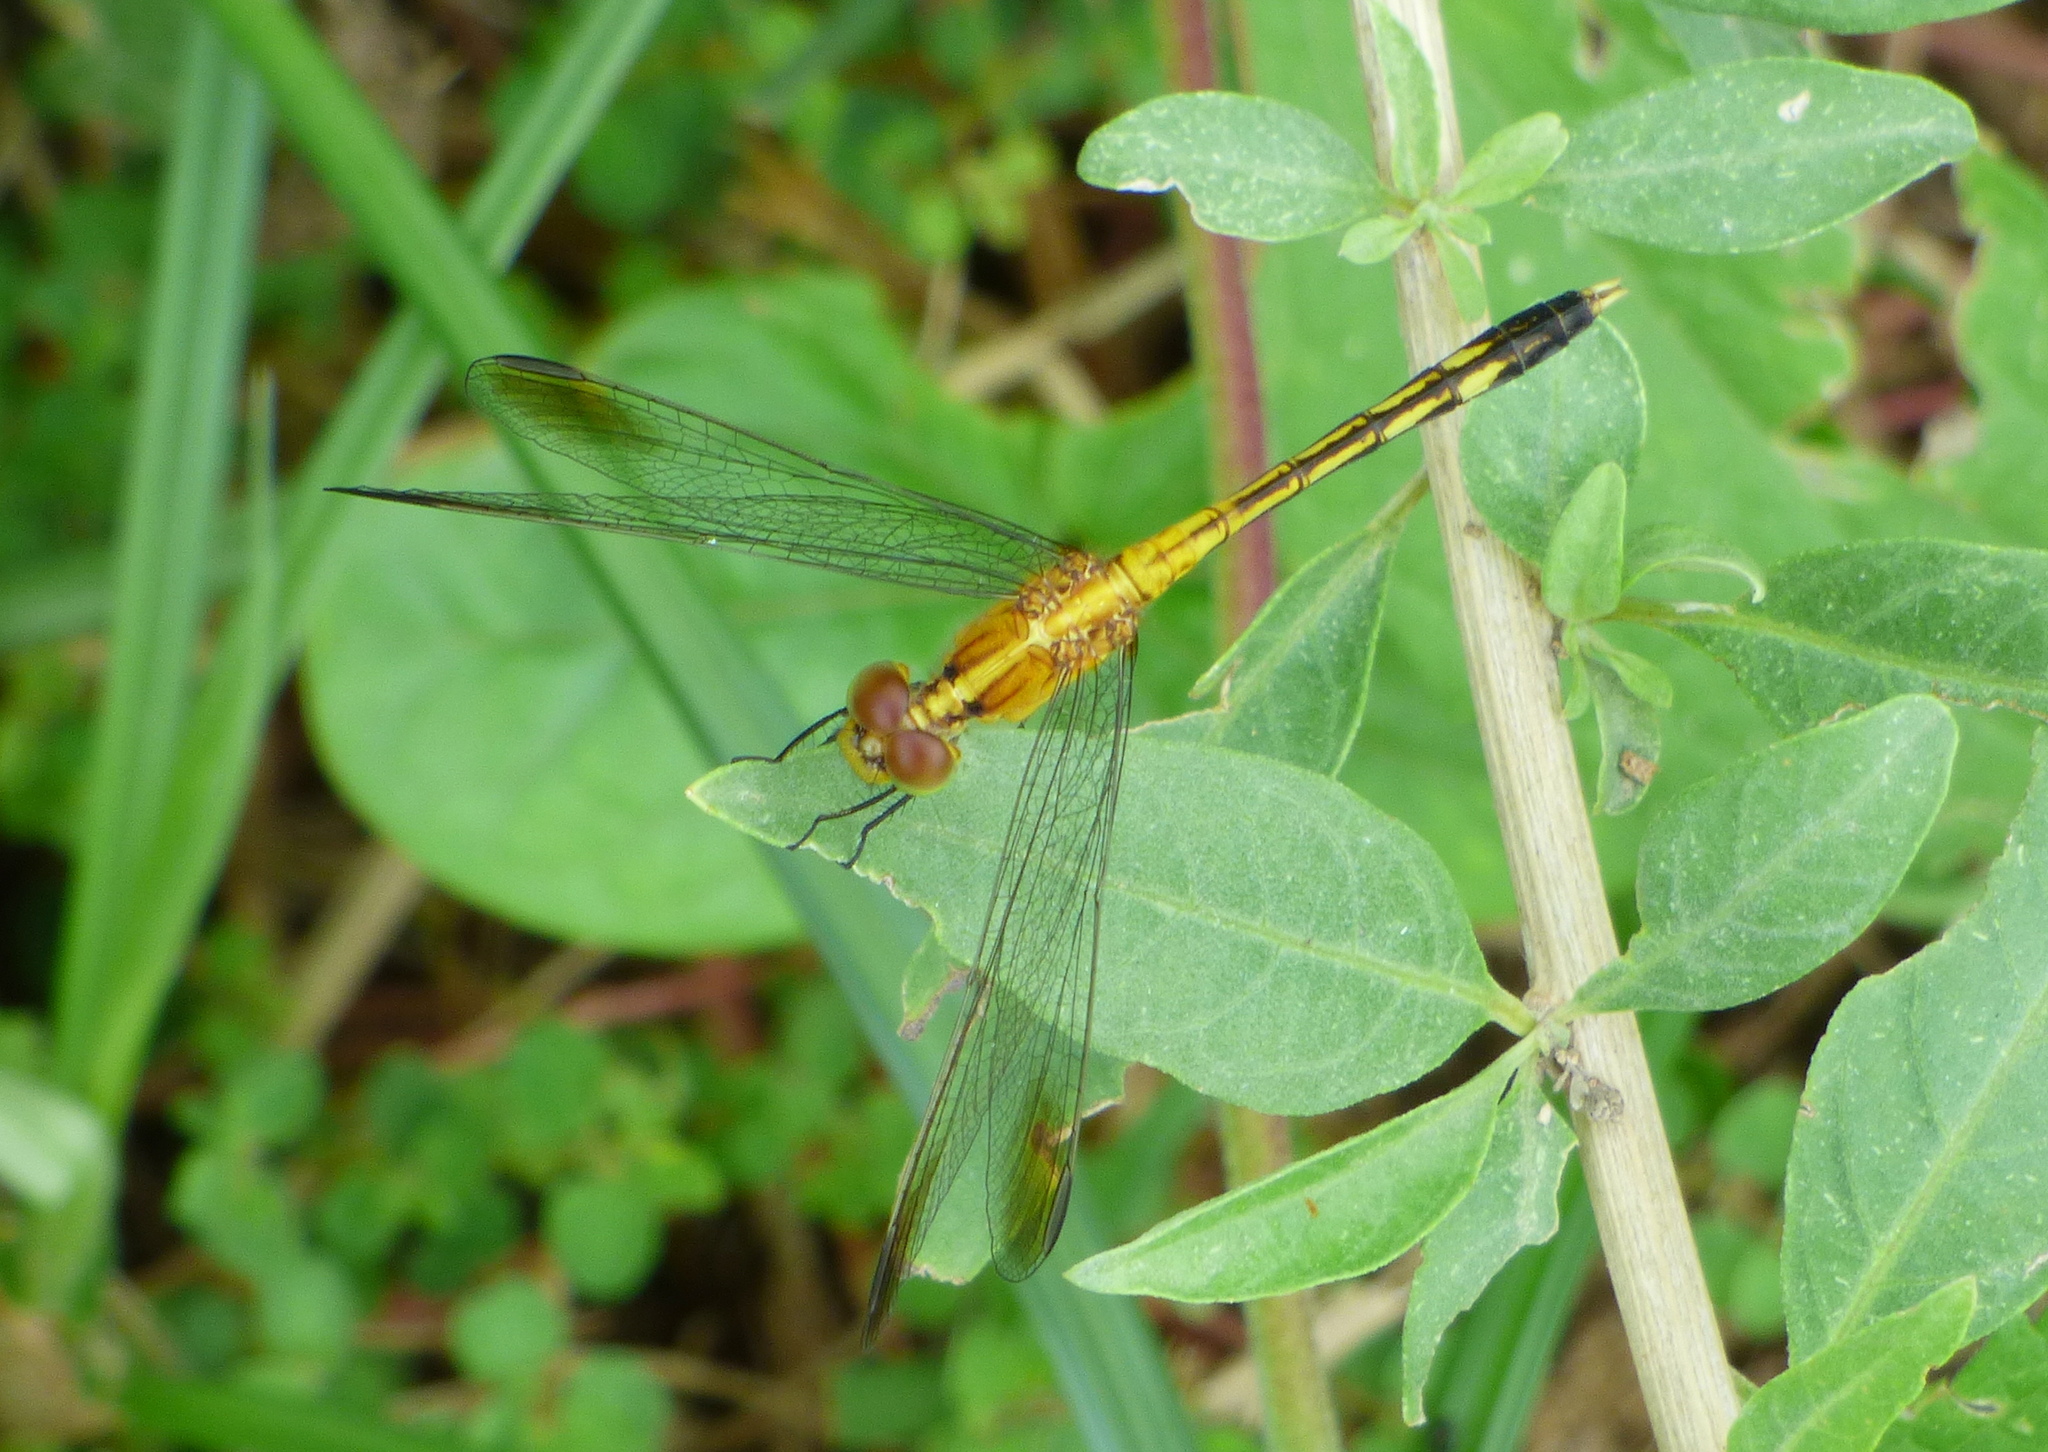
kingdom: Animalia
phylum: Arthropoda
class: Insecta
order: Odonata
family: Libellulidae
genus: Erythrodiplax
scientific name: Erythrodiplax nigricans
